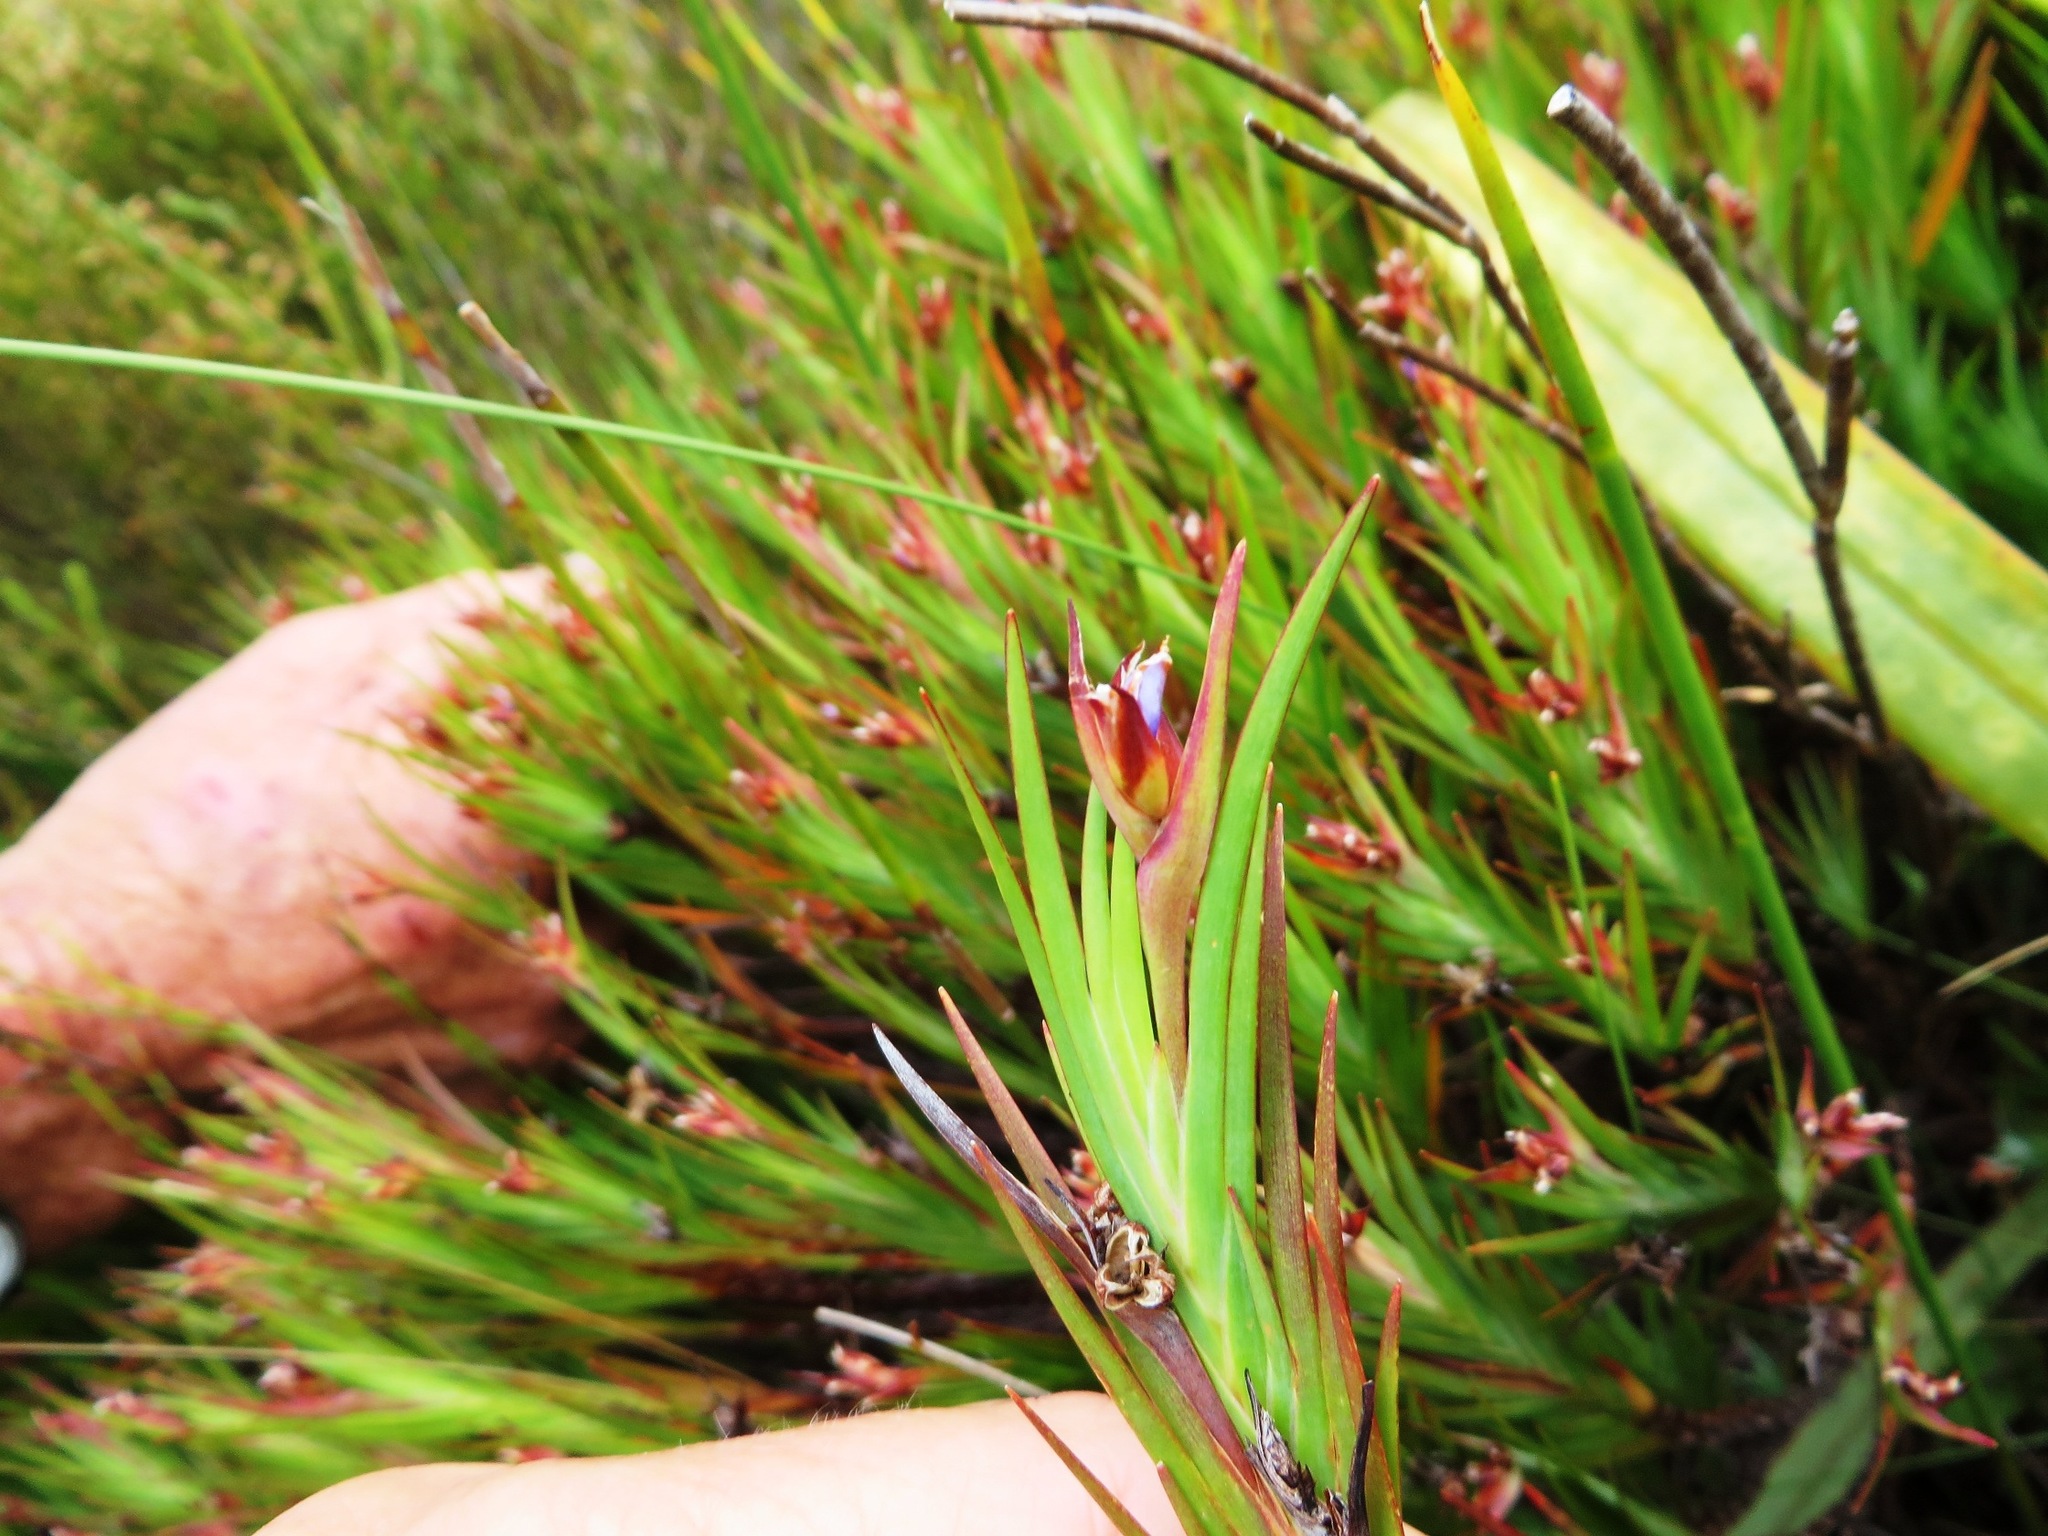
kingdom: Plantae
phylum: Tracheophyta
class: Liliopsida
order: Asparagales
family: Iridaceae
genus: Nivenia
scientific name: Nivenia levynsiae
